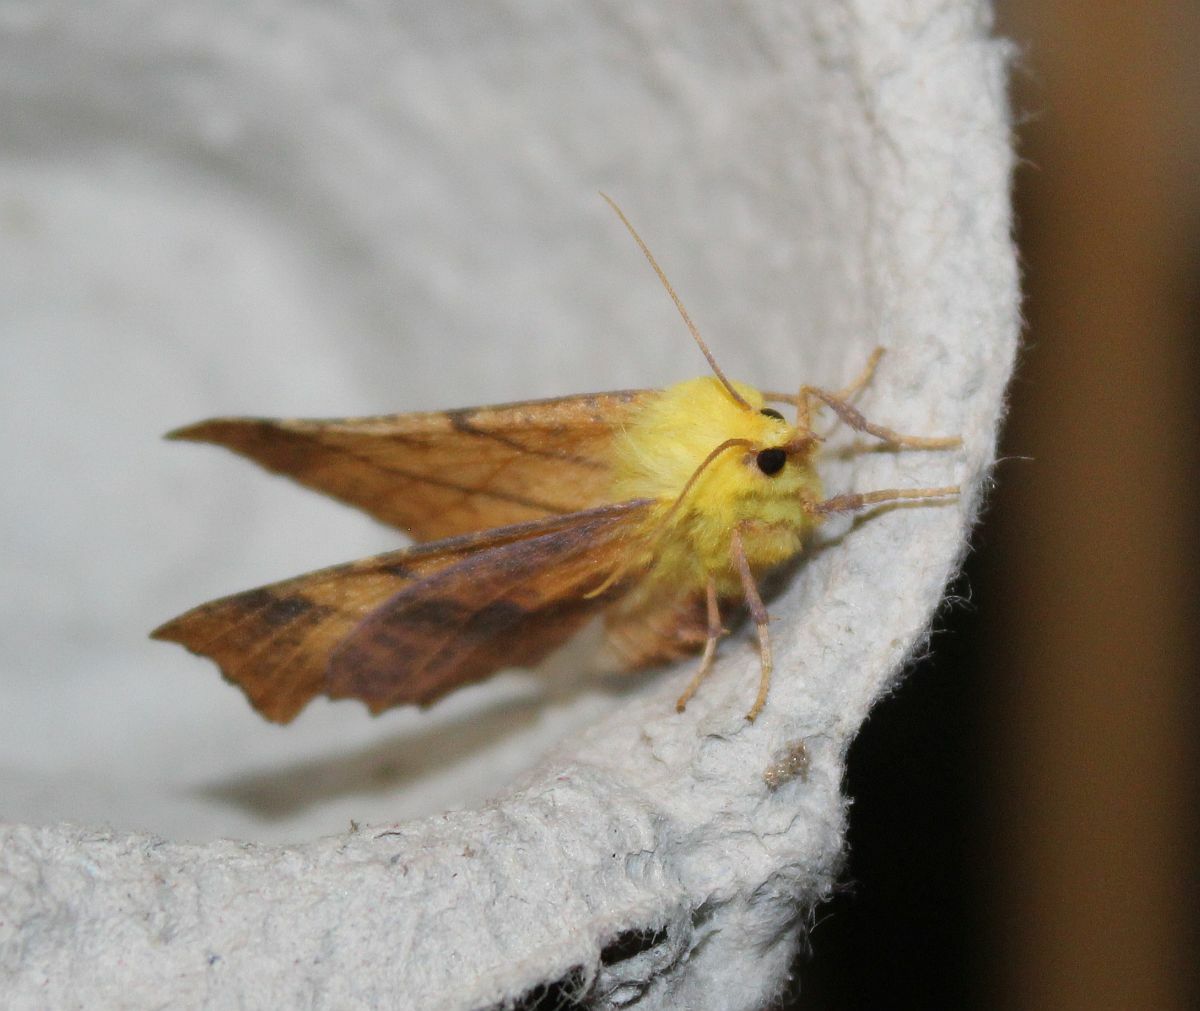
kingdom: Animalia
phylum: Arthropoda
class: Insecta
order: Lepidoptera
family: Geometridae
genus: Ennomos
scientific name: Ennomos alniaria
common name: Canary-shouldered thorn
